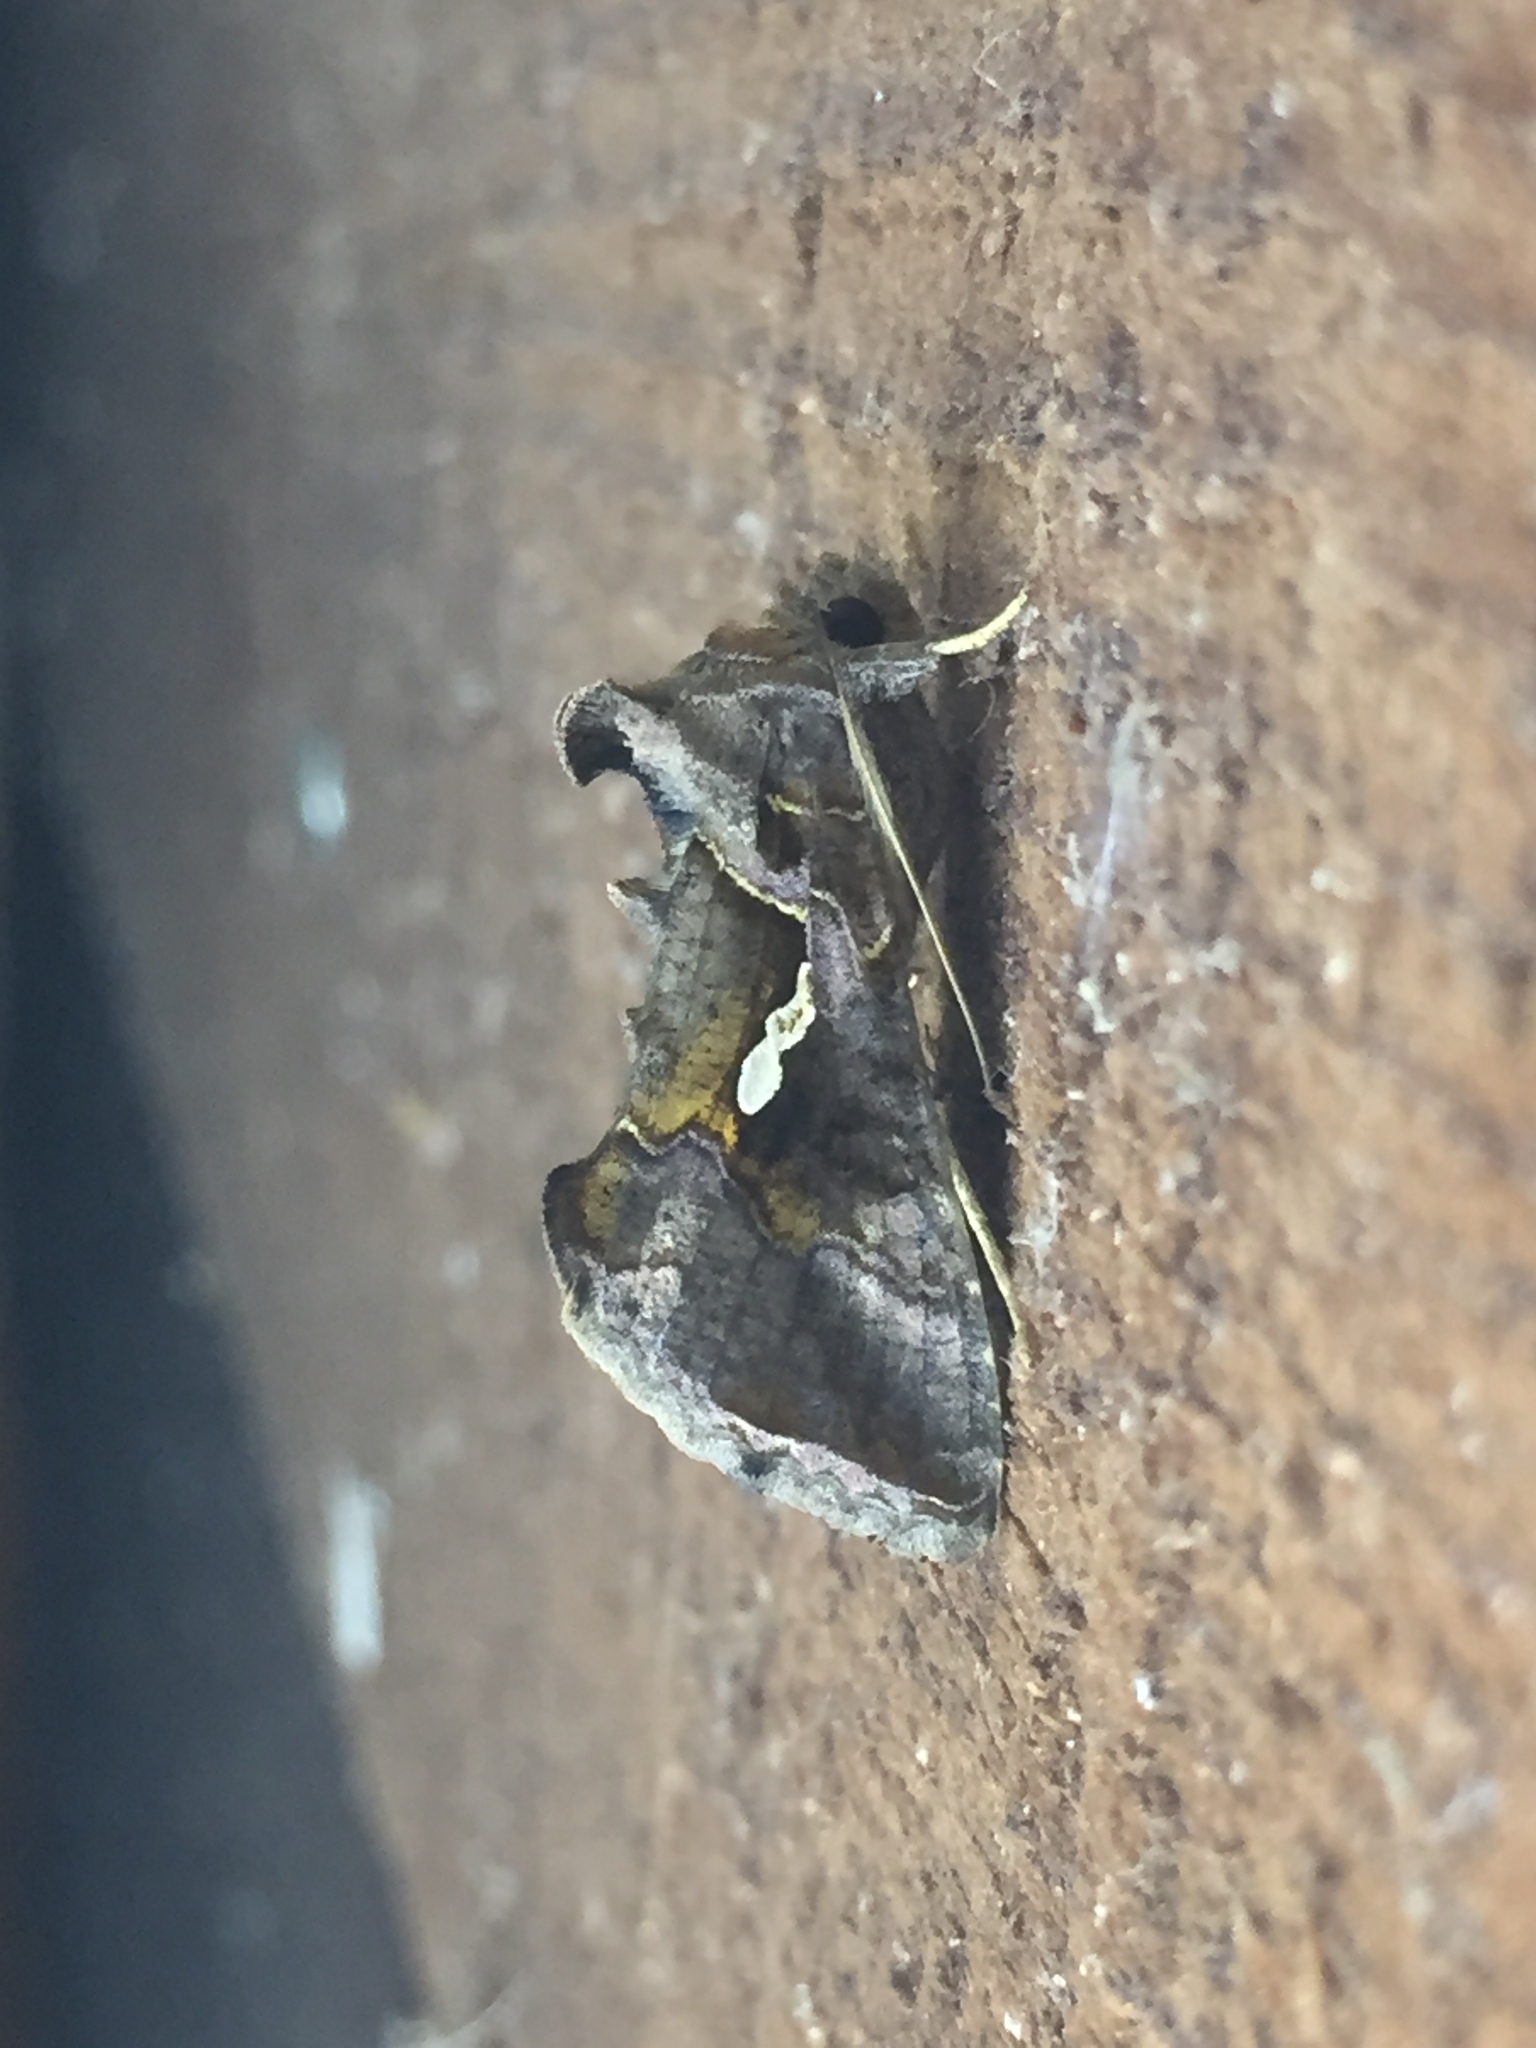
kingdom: Animalia
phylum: Arthropoda
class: Insecta
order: Lepidoptera
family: Noctuidae
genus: Chrysodeixis
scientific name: Chrysodeixis eriosoma
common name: Green garden looper
